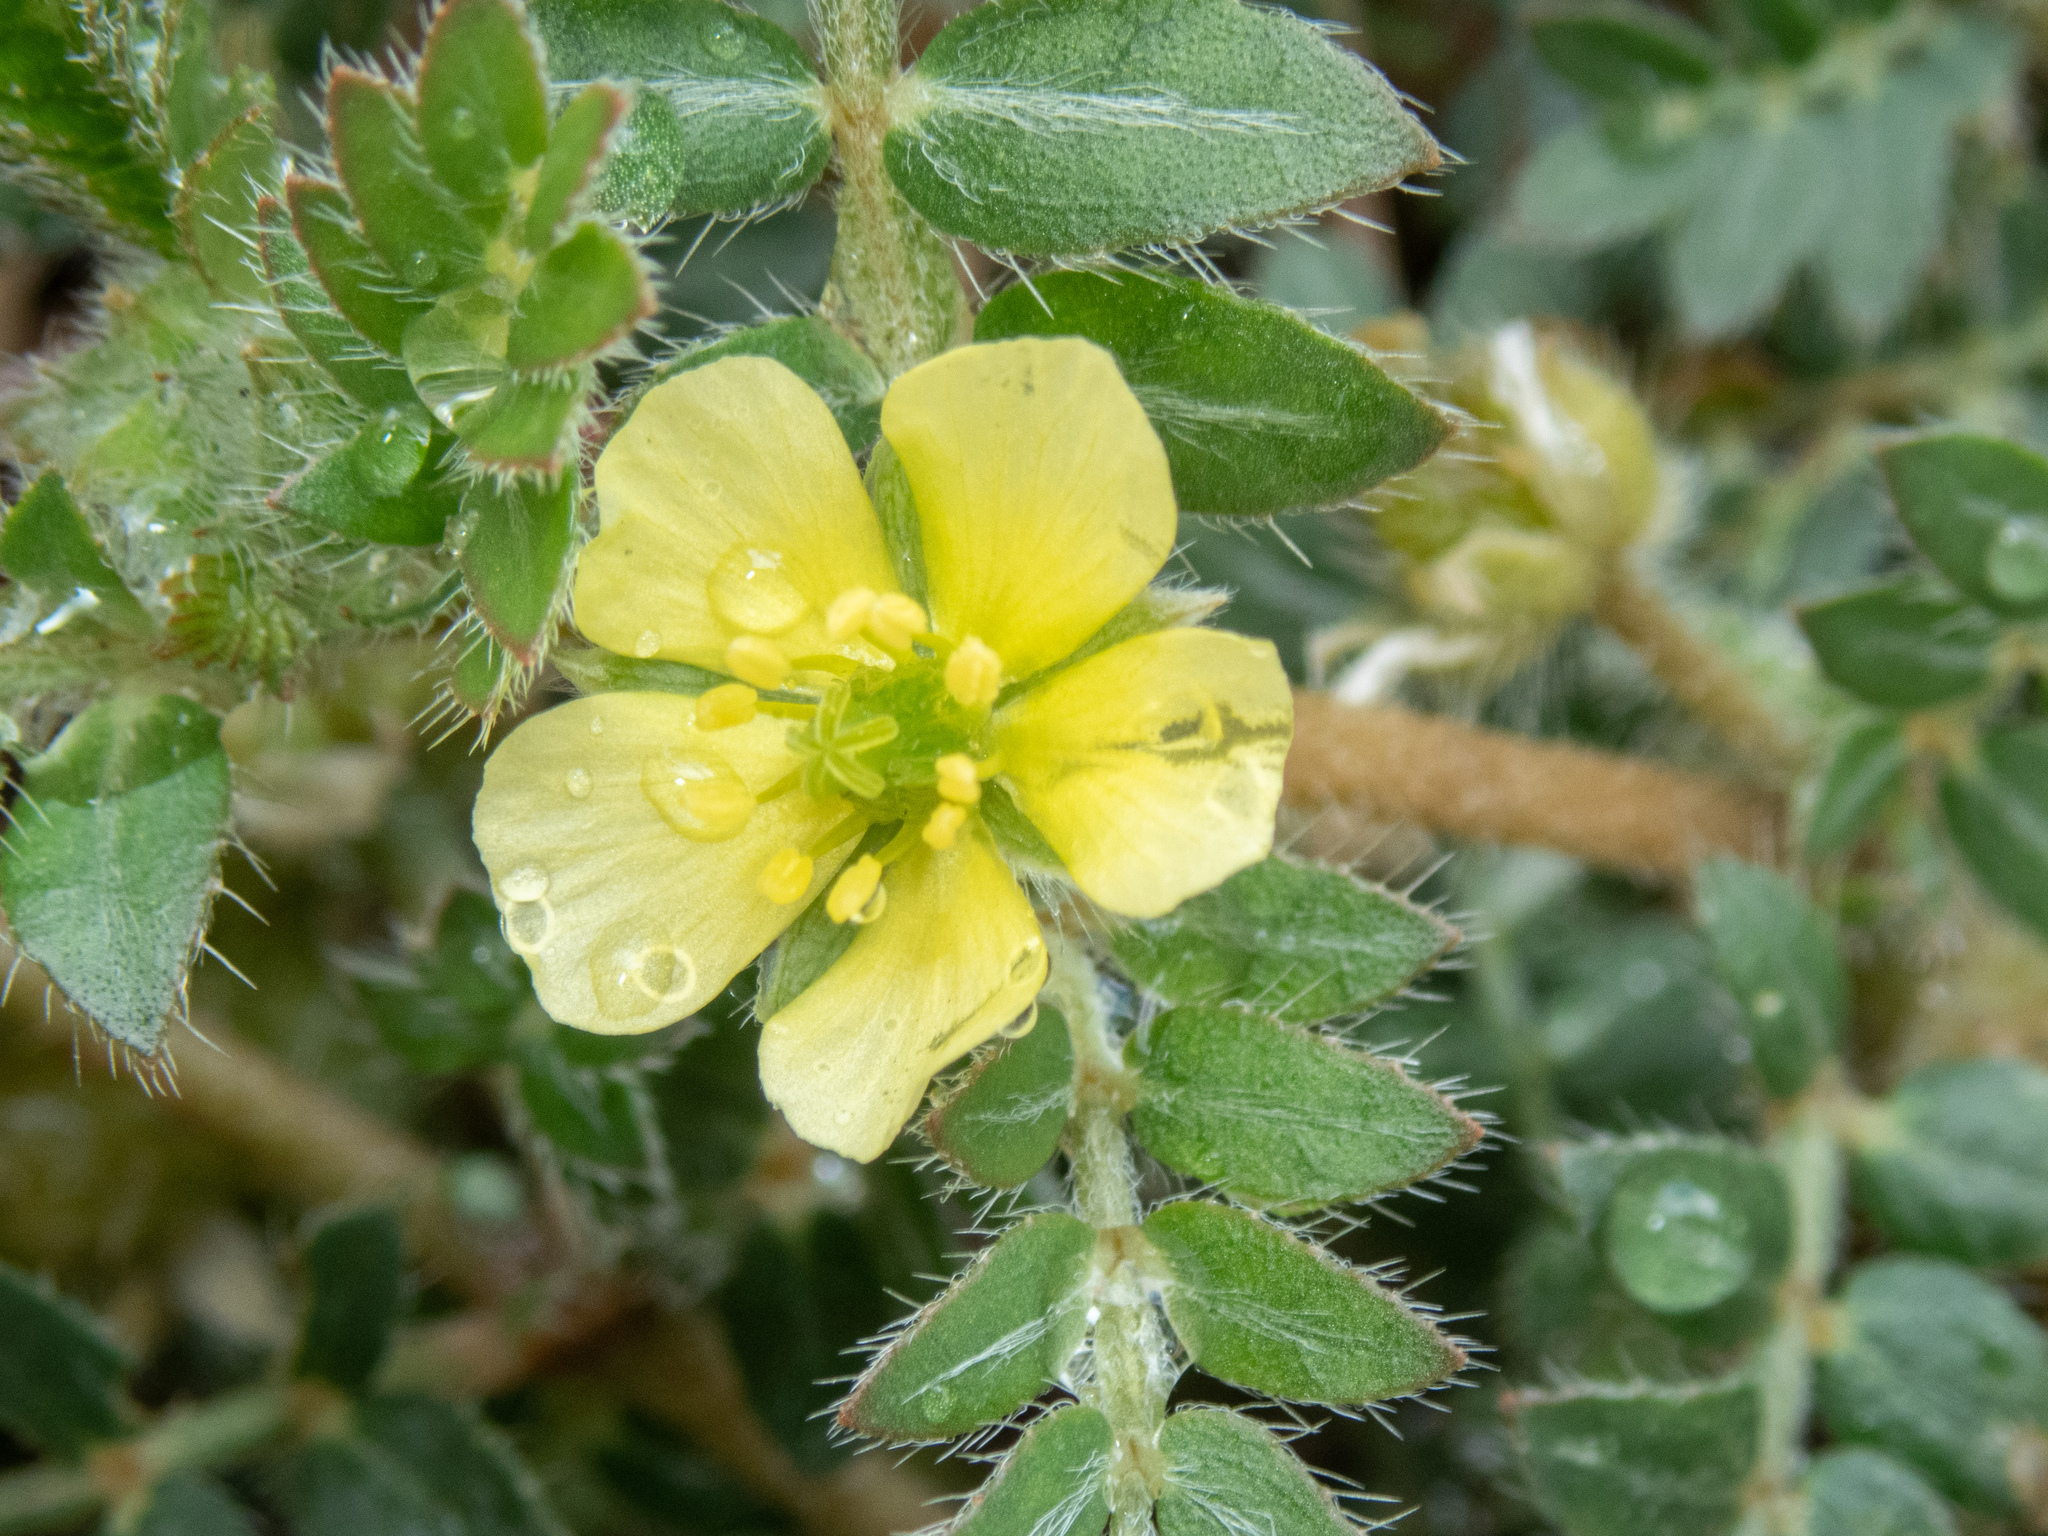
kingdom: Plantae
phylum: Tracheophyta
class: Magnoliopsida
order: Zygophyllales
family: Zygophyllaceae
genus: Tribulus
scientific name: Tribulus terrestris
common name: Puncturevine
